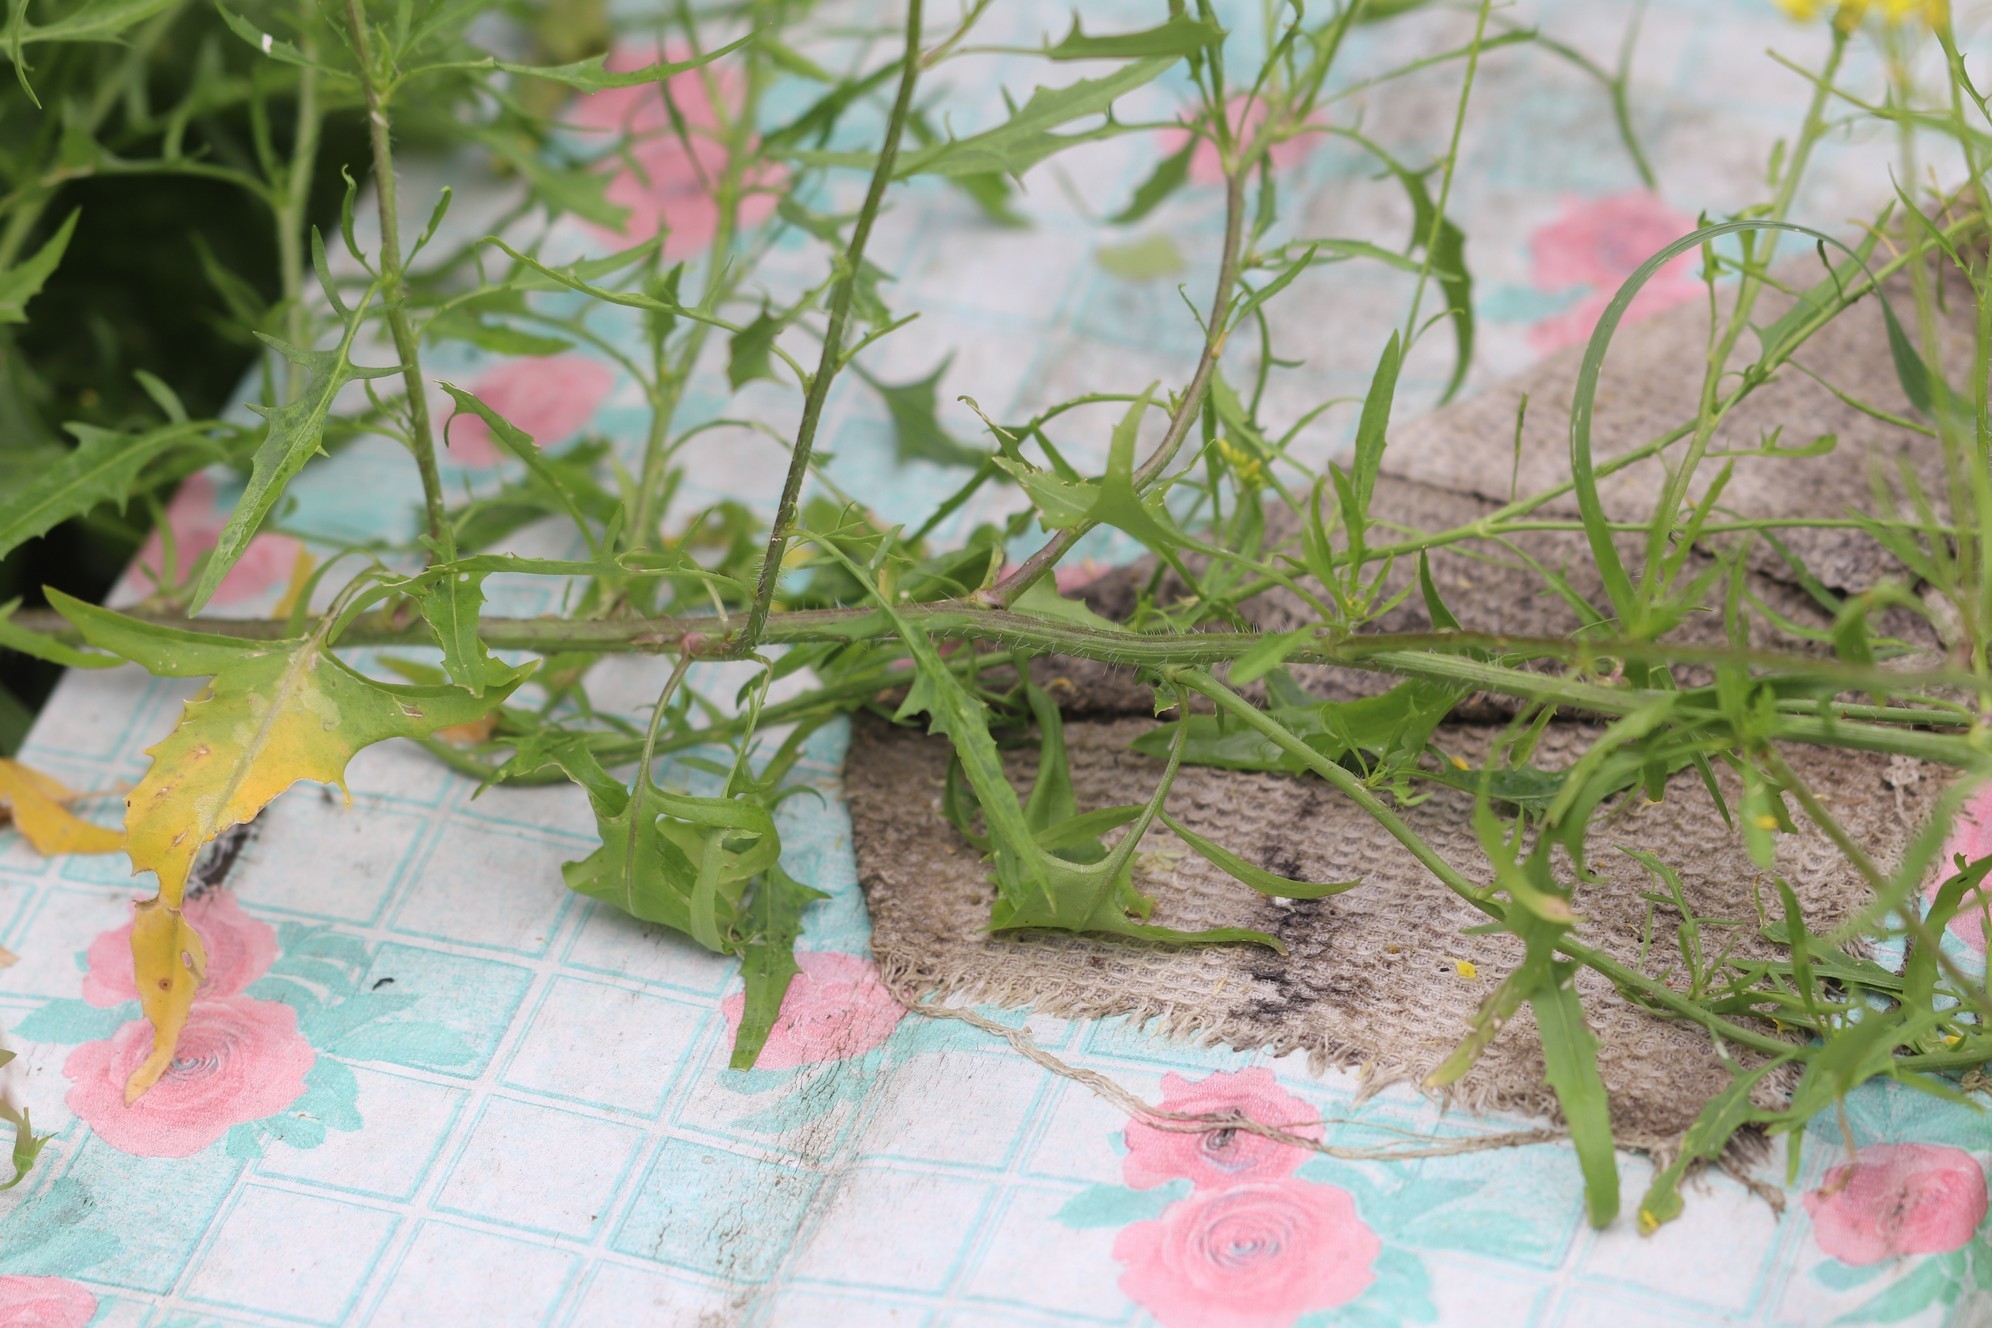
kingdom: Plantae
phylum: Tracheophyta
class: Magnoliopsida
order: Brassicales
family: Brassicaceae
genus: Sisymbrium
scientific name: Sisymbrium loeselii
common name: False london-rocket
